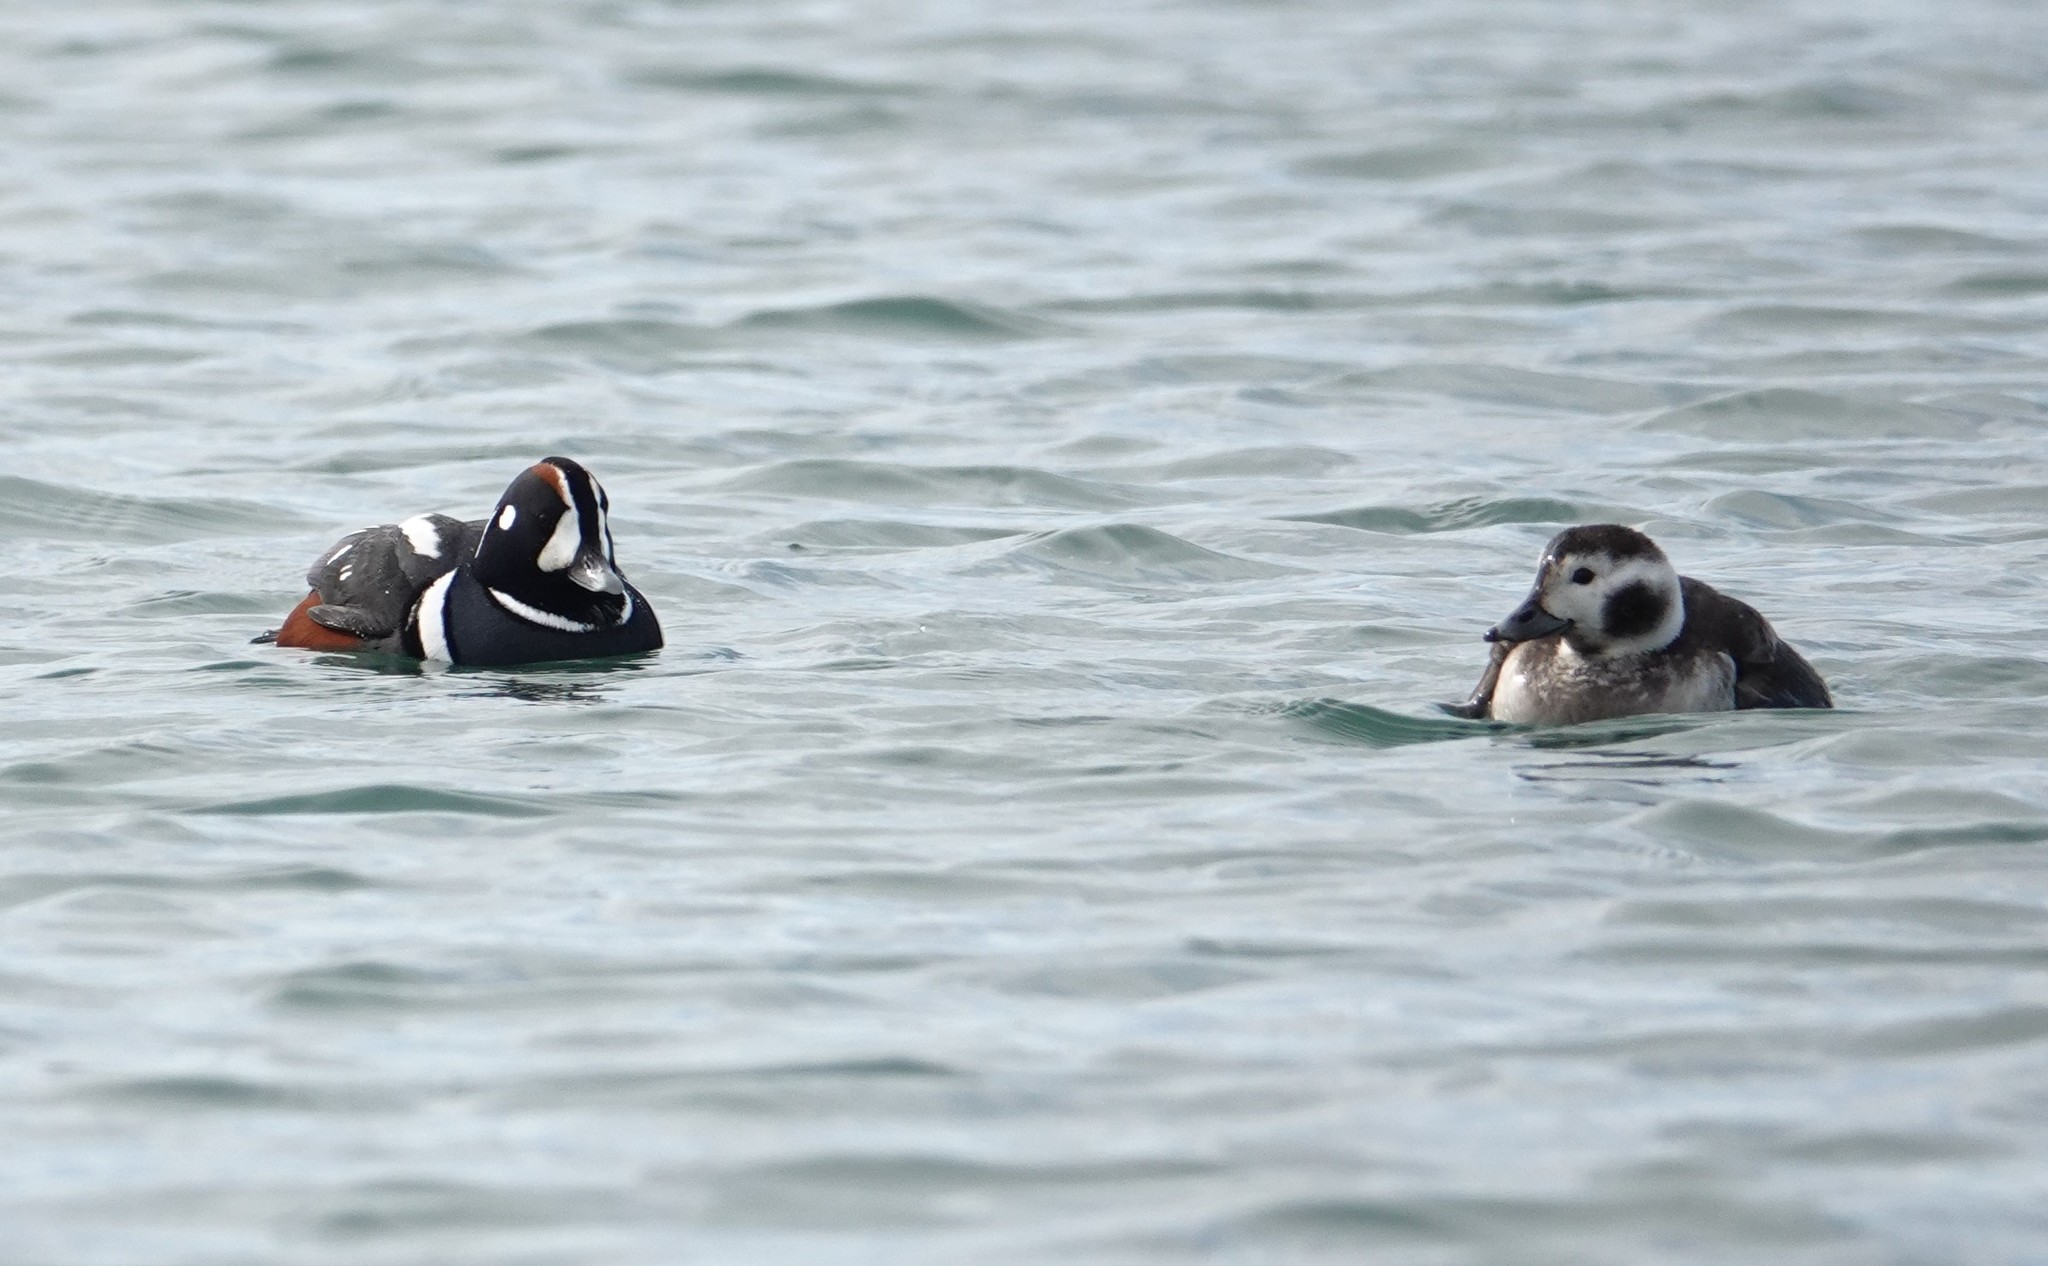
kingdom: Animalia
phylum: Chordata
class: Aves
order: Anseriformes
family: Anatidae
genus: Clangula
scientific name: Clangula hyemalis
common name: Long-tailed duck
